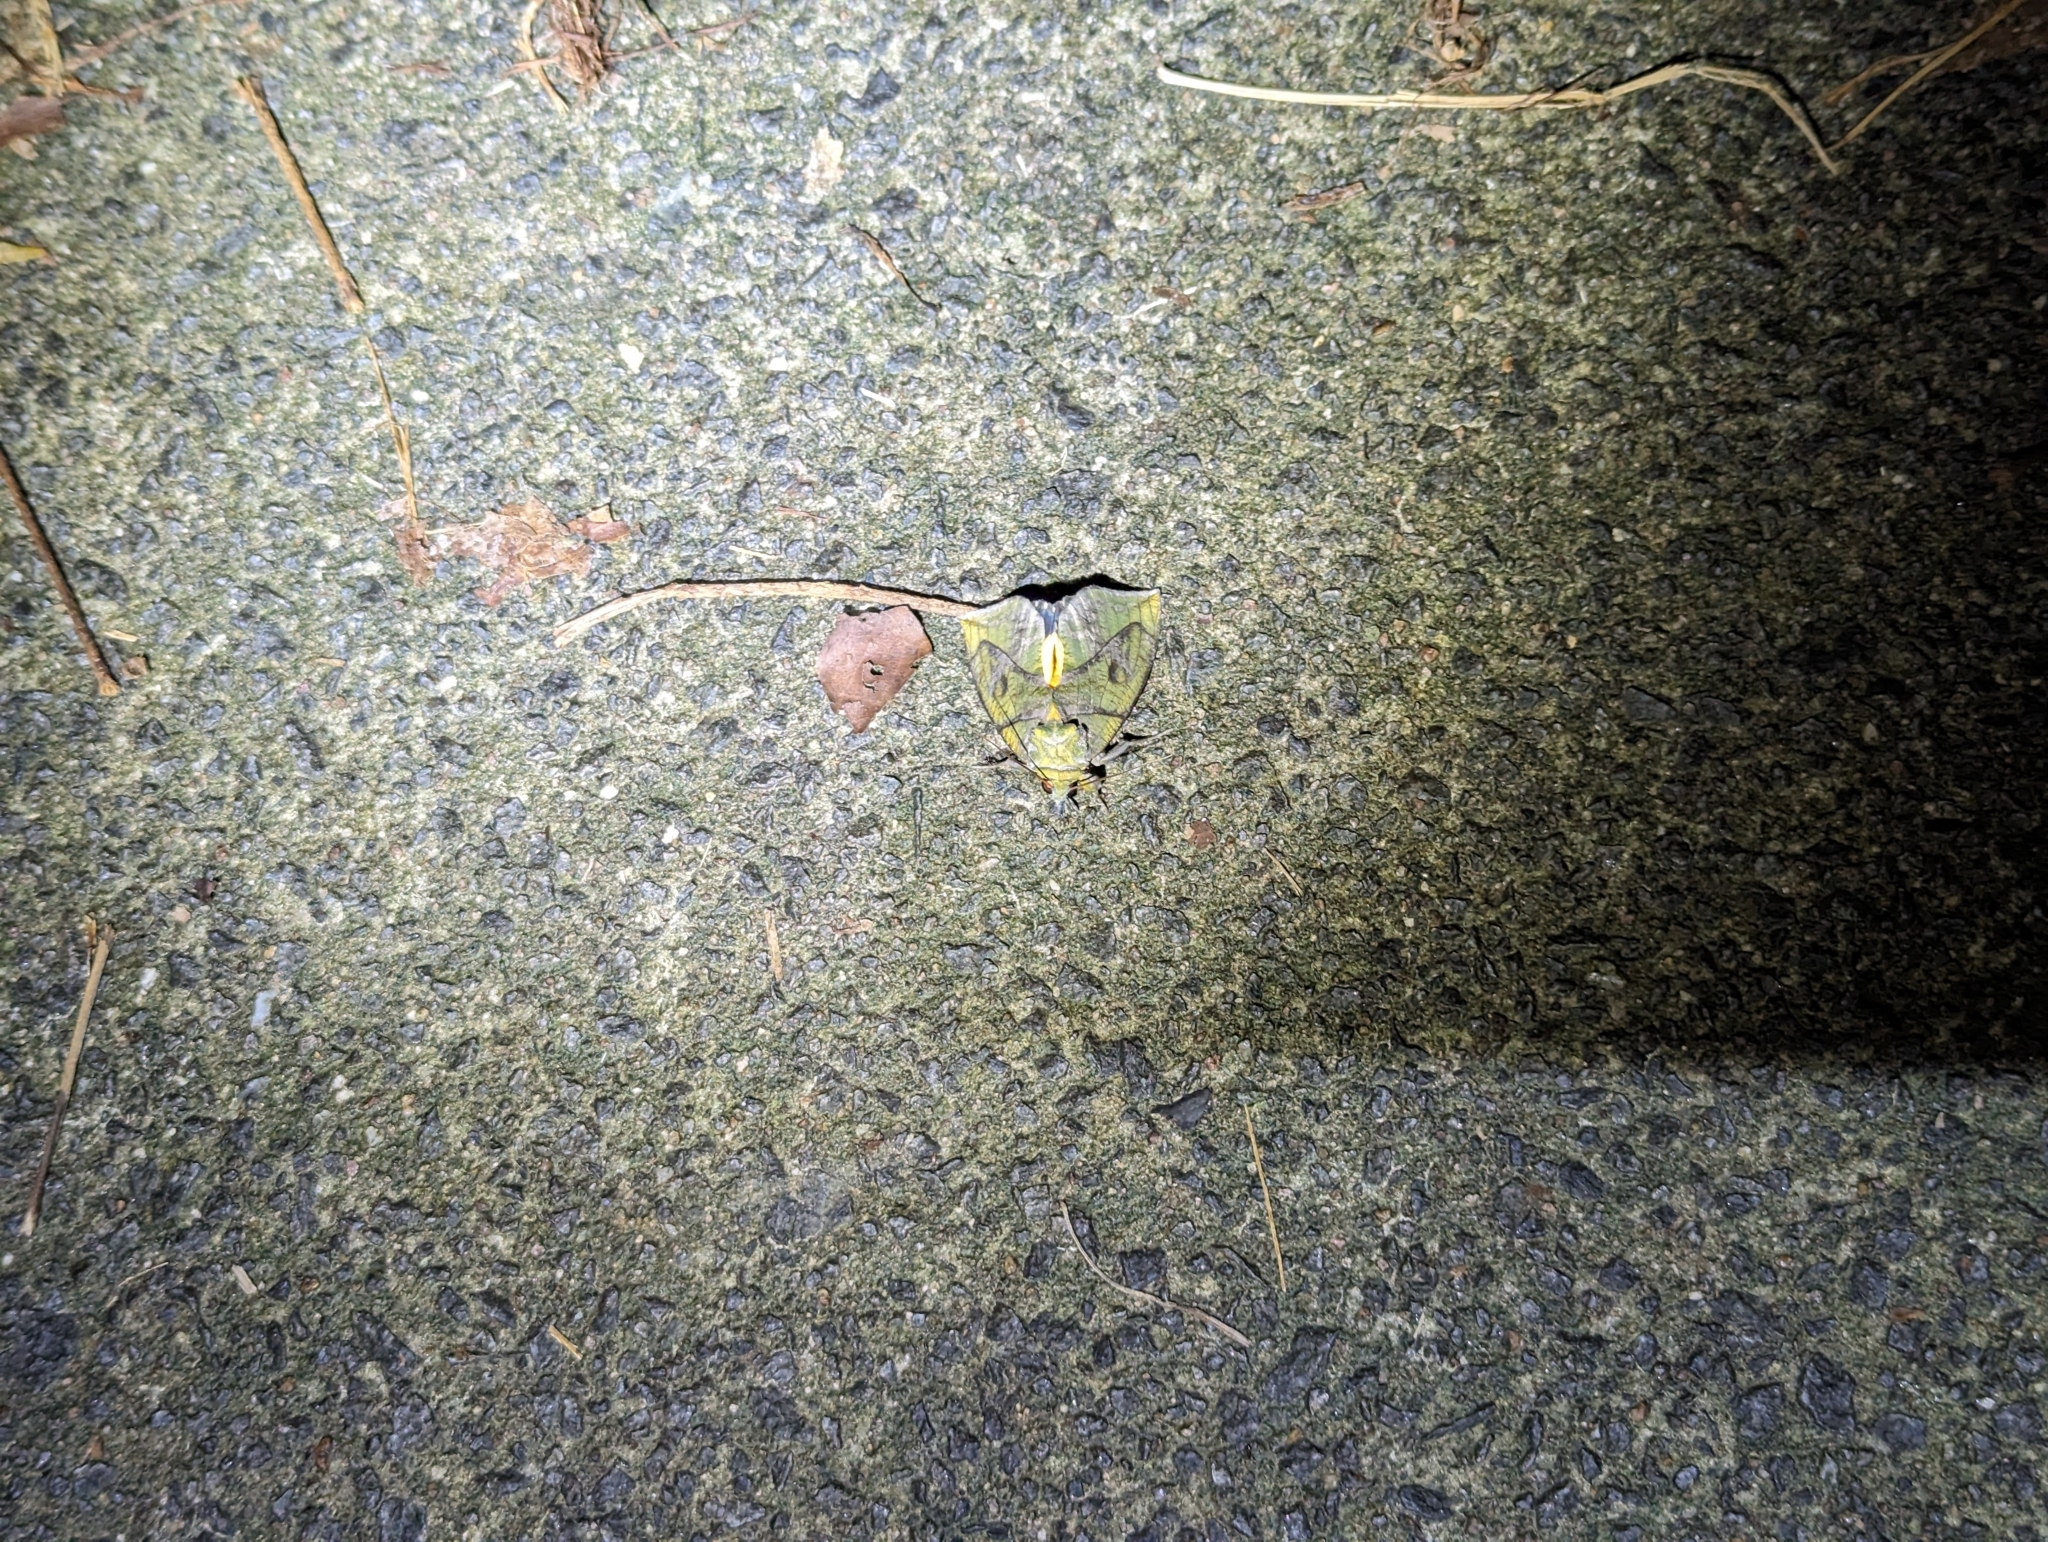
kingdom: Animalia
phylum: Arthropoda
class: Insecta
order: Lepidoptera
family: Erebidae
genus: Eudocima
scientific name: Eudocima cocalus
